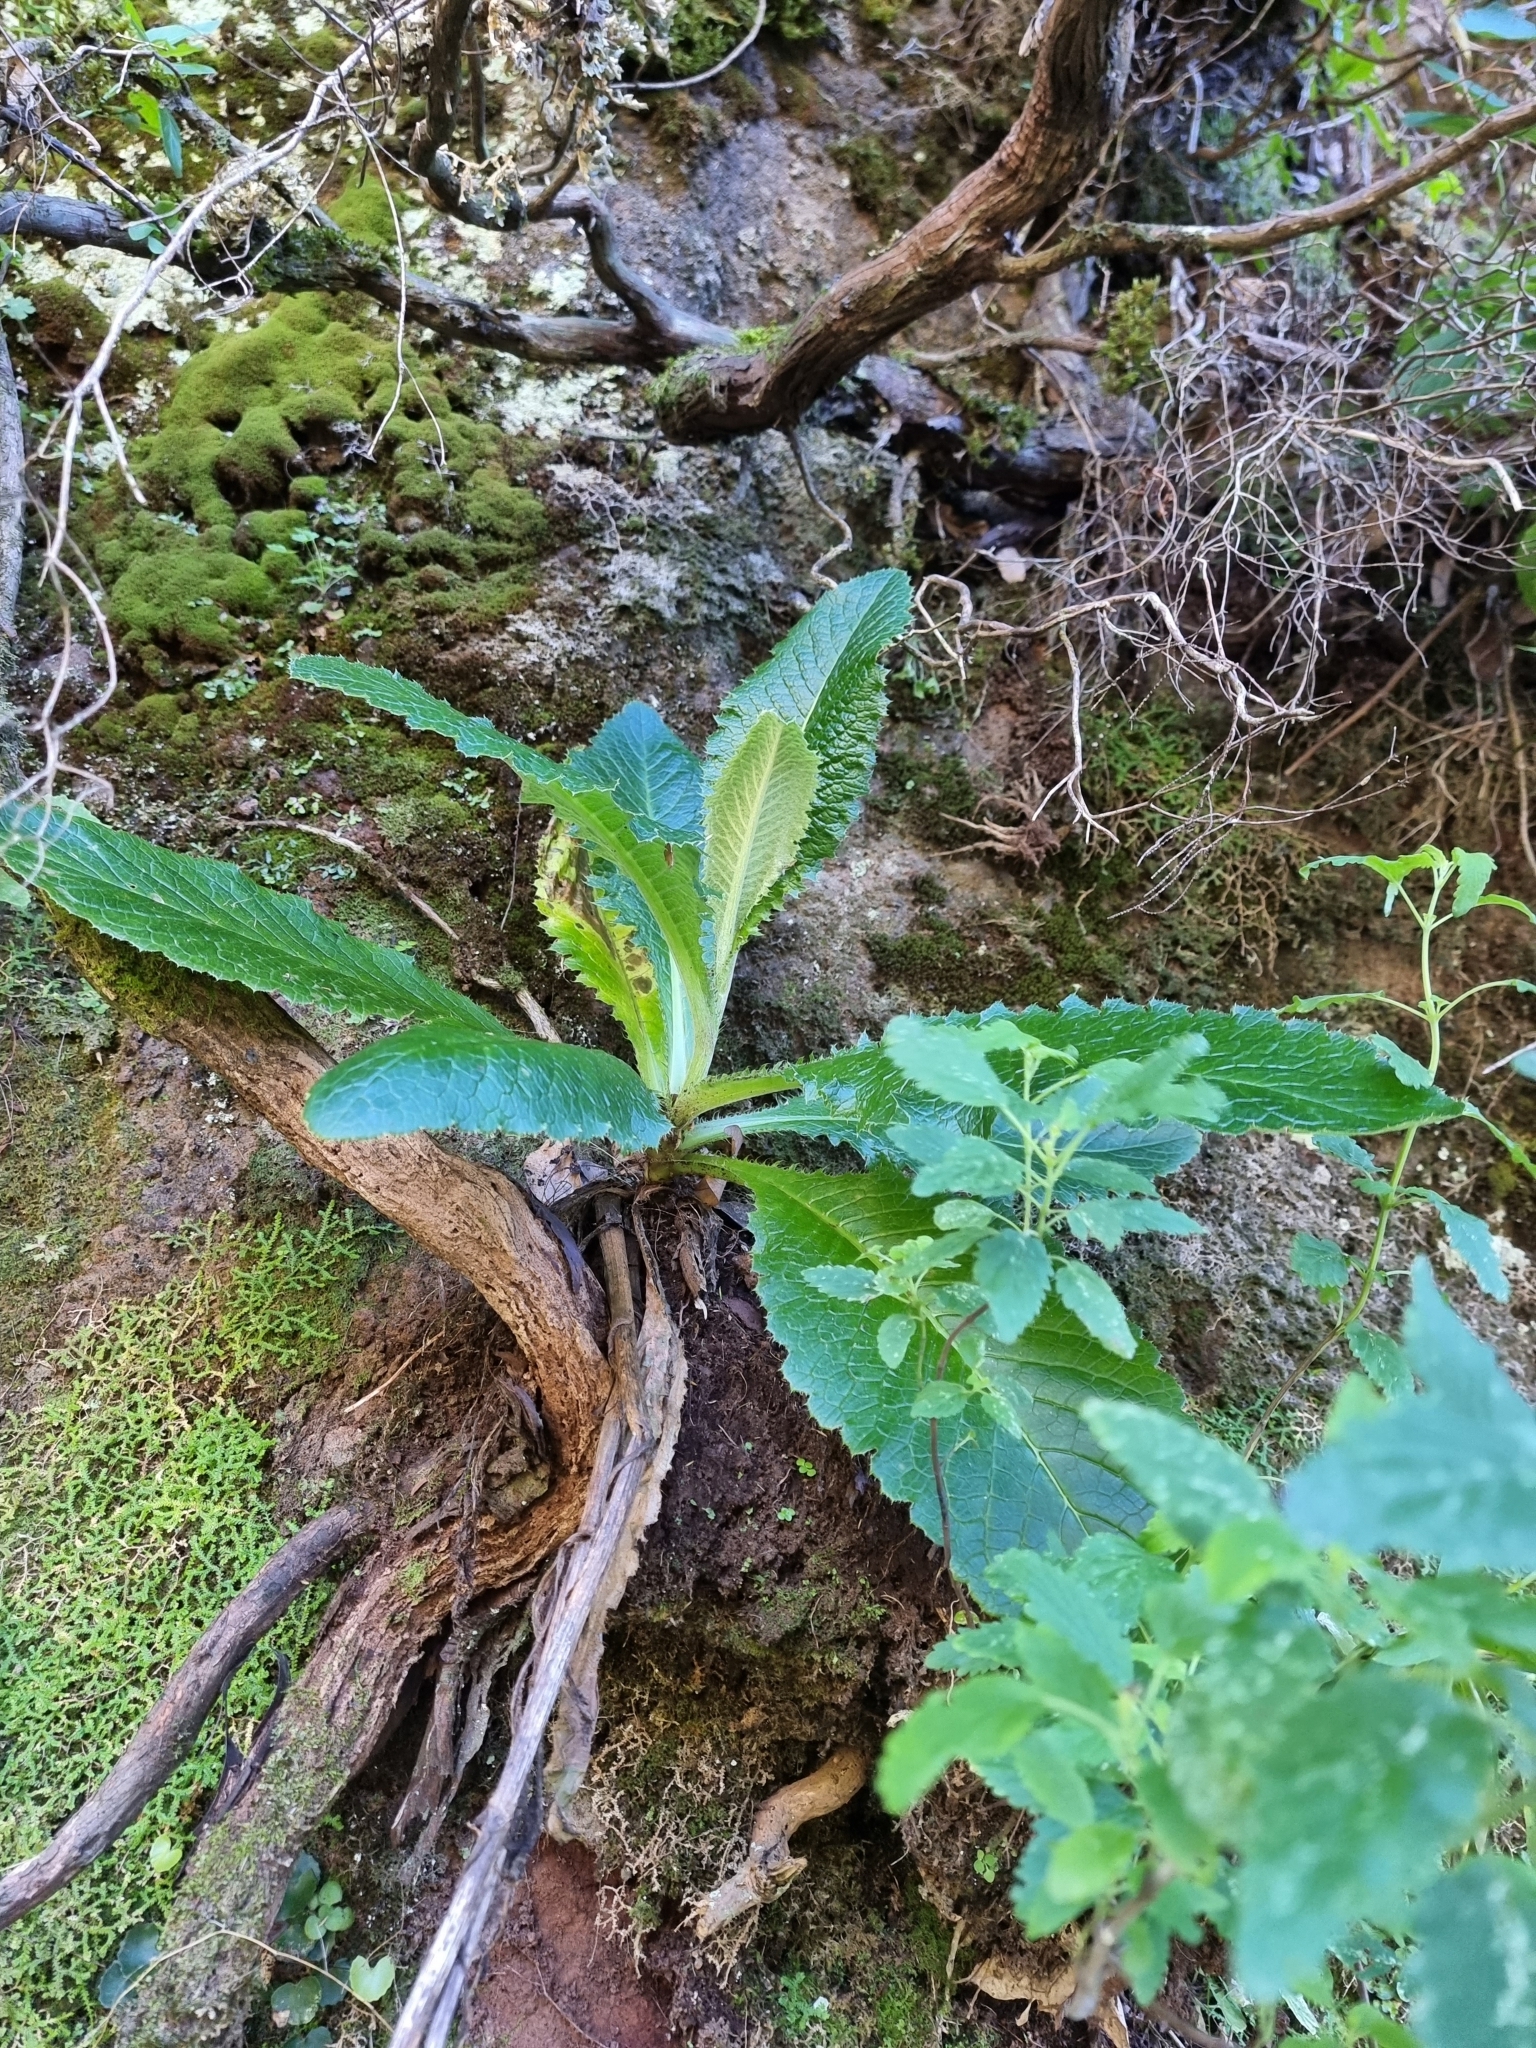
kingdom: Plantae
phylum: Tracheophyta
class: Magnoliopsida
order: Asterales
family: Asteraceae
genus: Cirsium
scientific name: Cirsium latifolium
